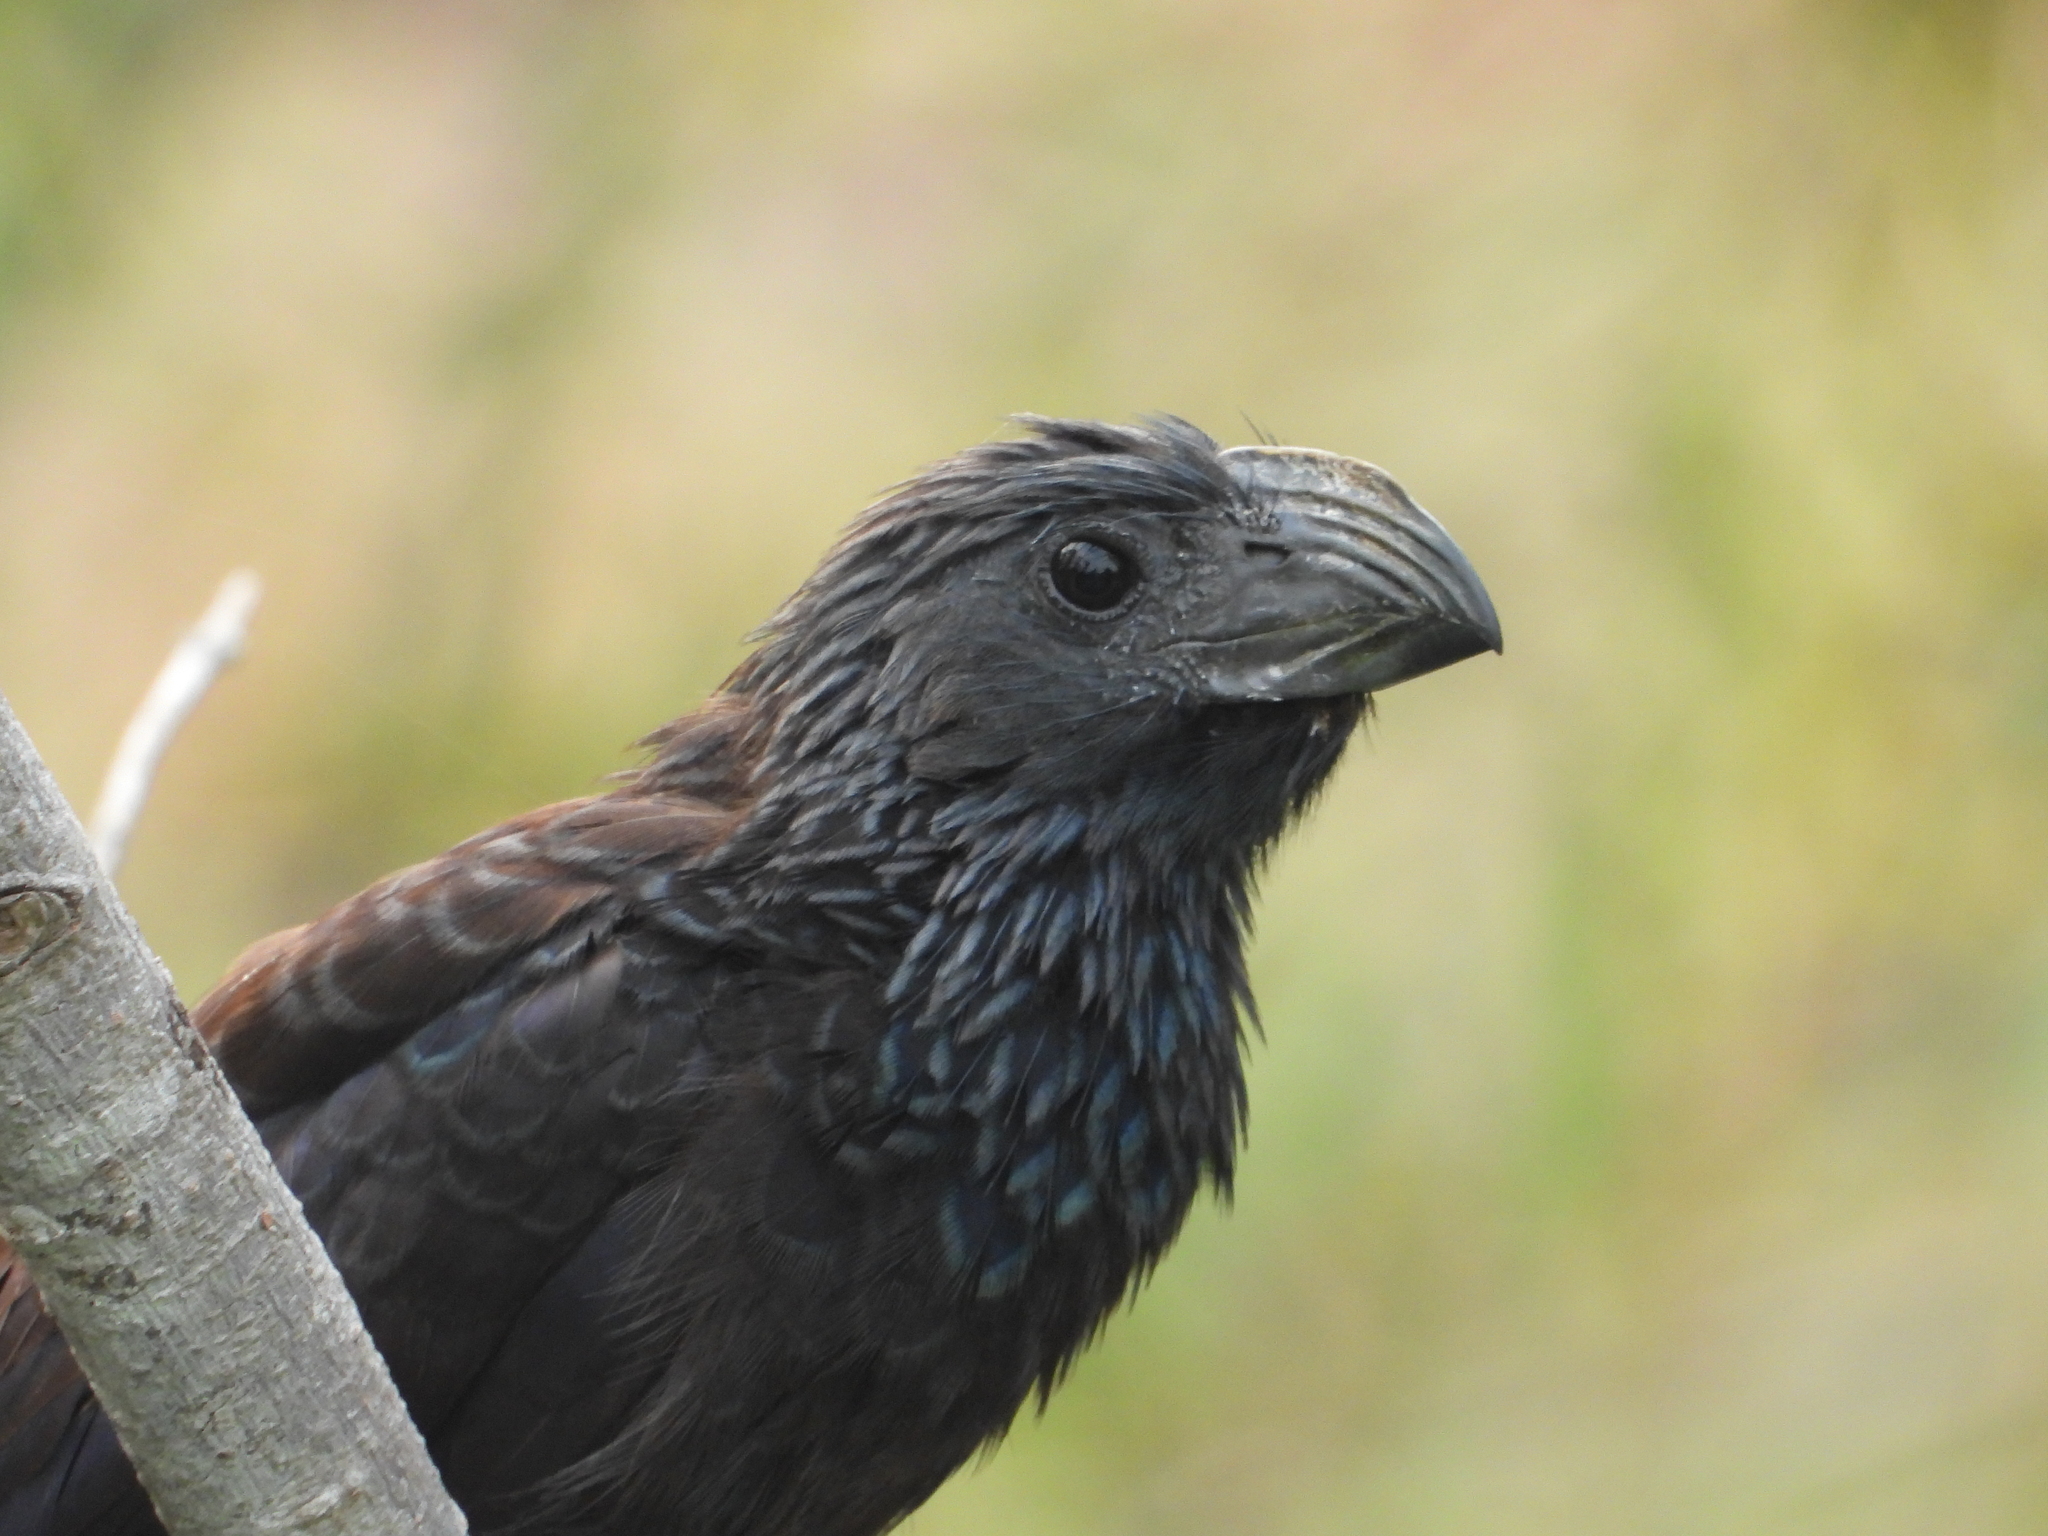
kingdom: Animalia
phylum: Chordata
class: Aves
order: Cuculiformes
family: Cuculidae
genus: Crotophaga
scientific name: Crotophaga sulcirostris
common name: Groove-billed ani
